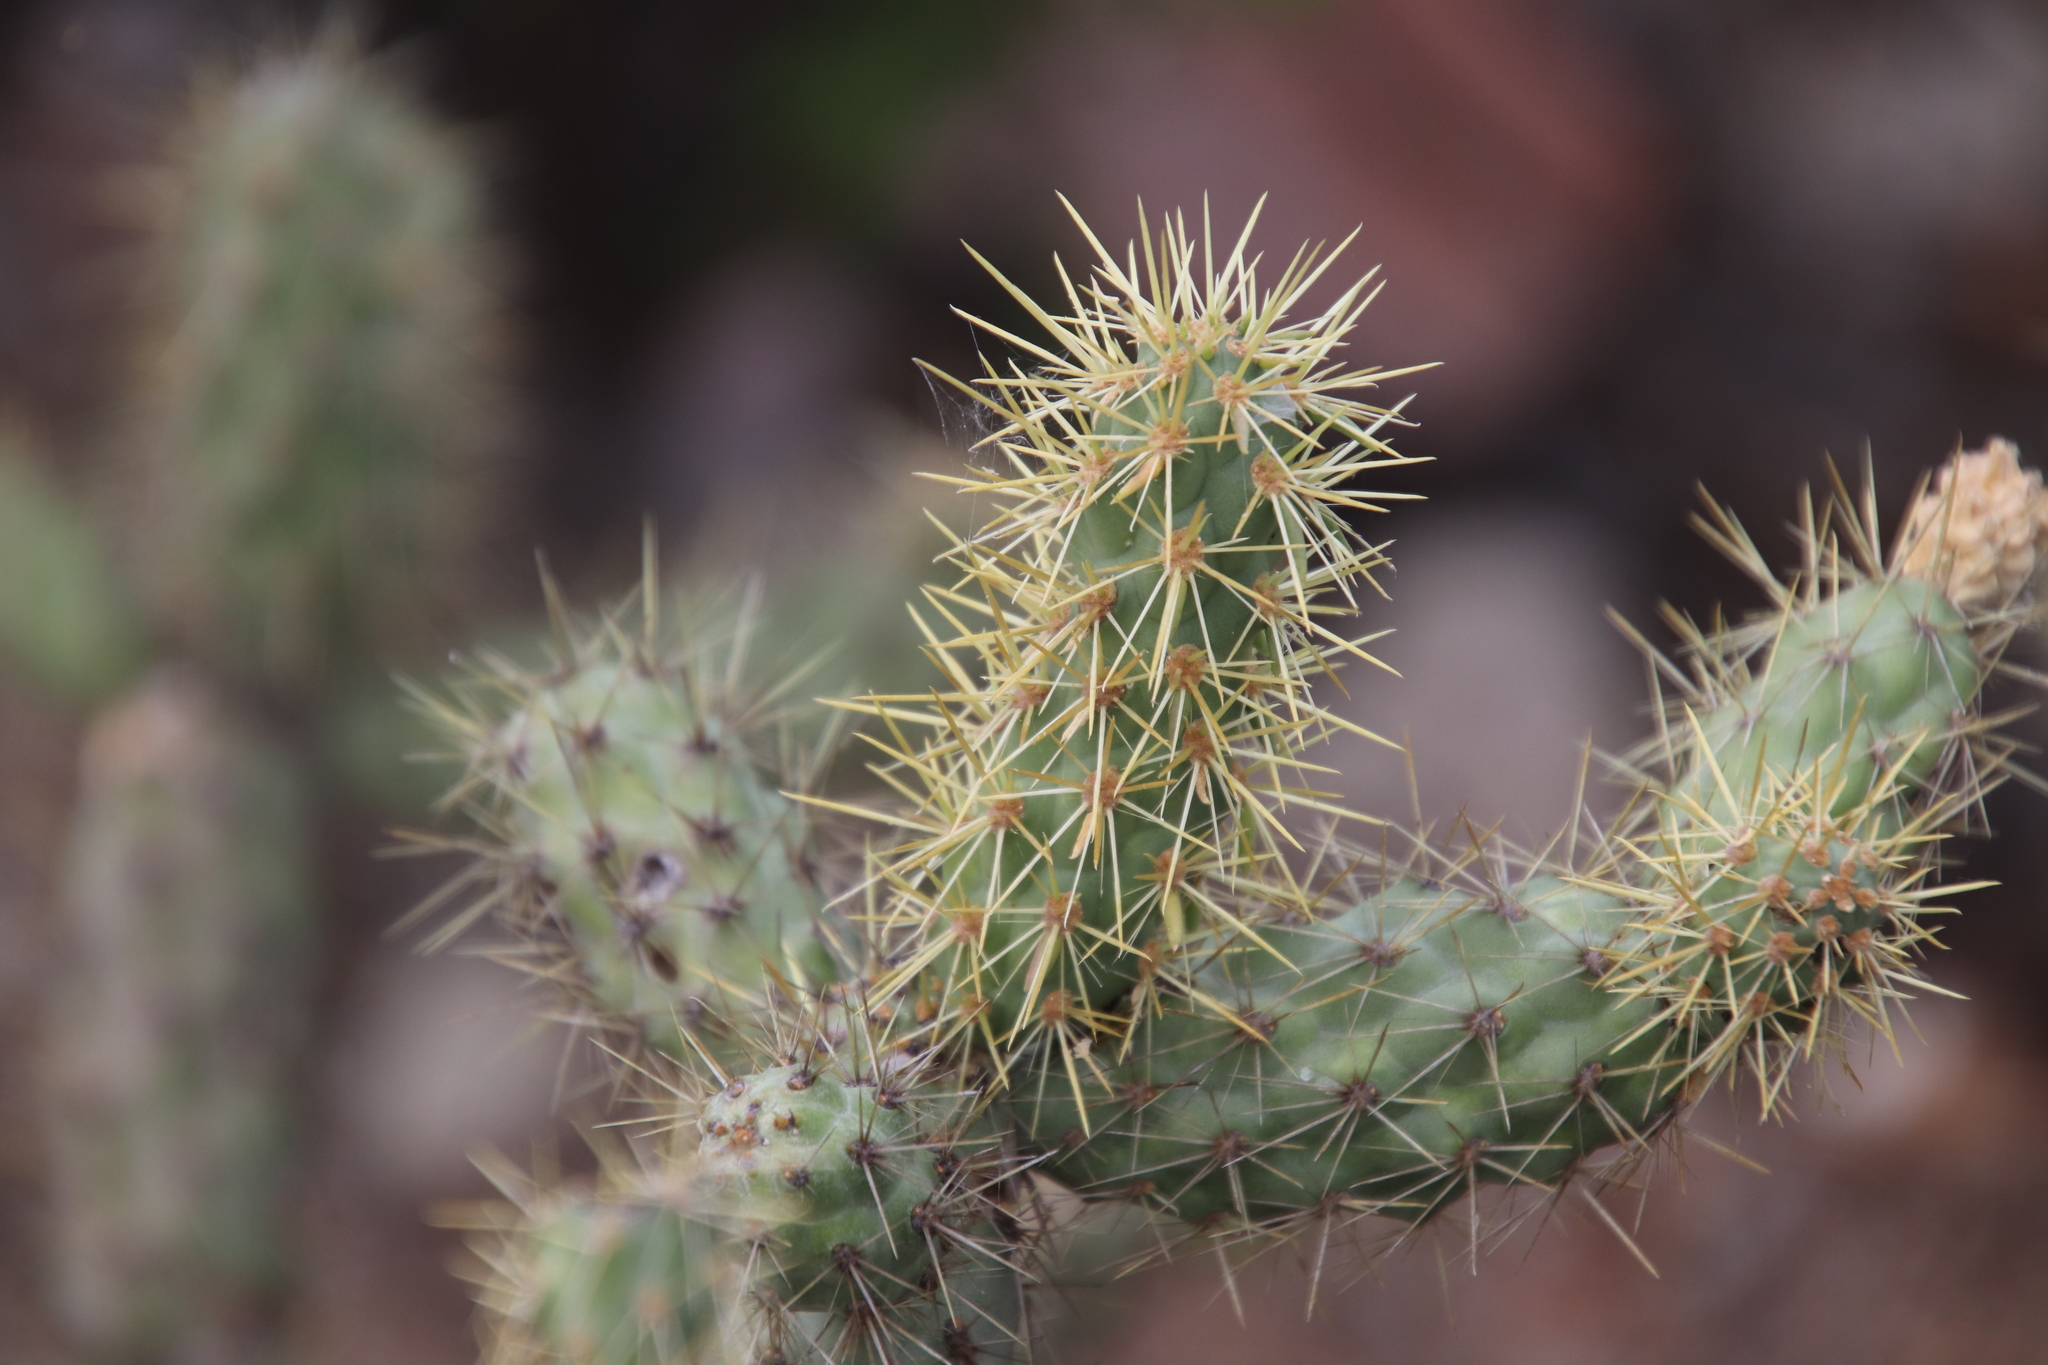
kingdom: Plantae
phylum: Tracheophyta
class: Magnoliopsida
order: Caryophyllales
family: Cactaceae
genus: Cylindropuntia
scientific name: Cylindropuntia alcahes
